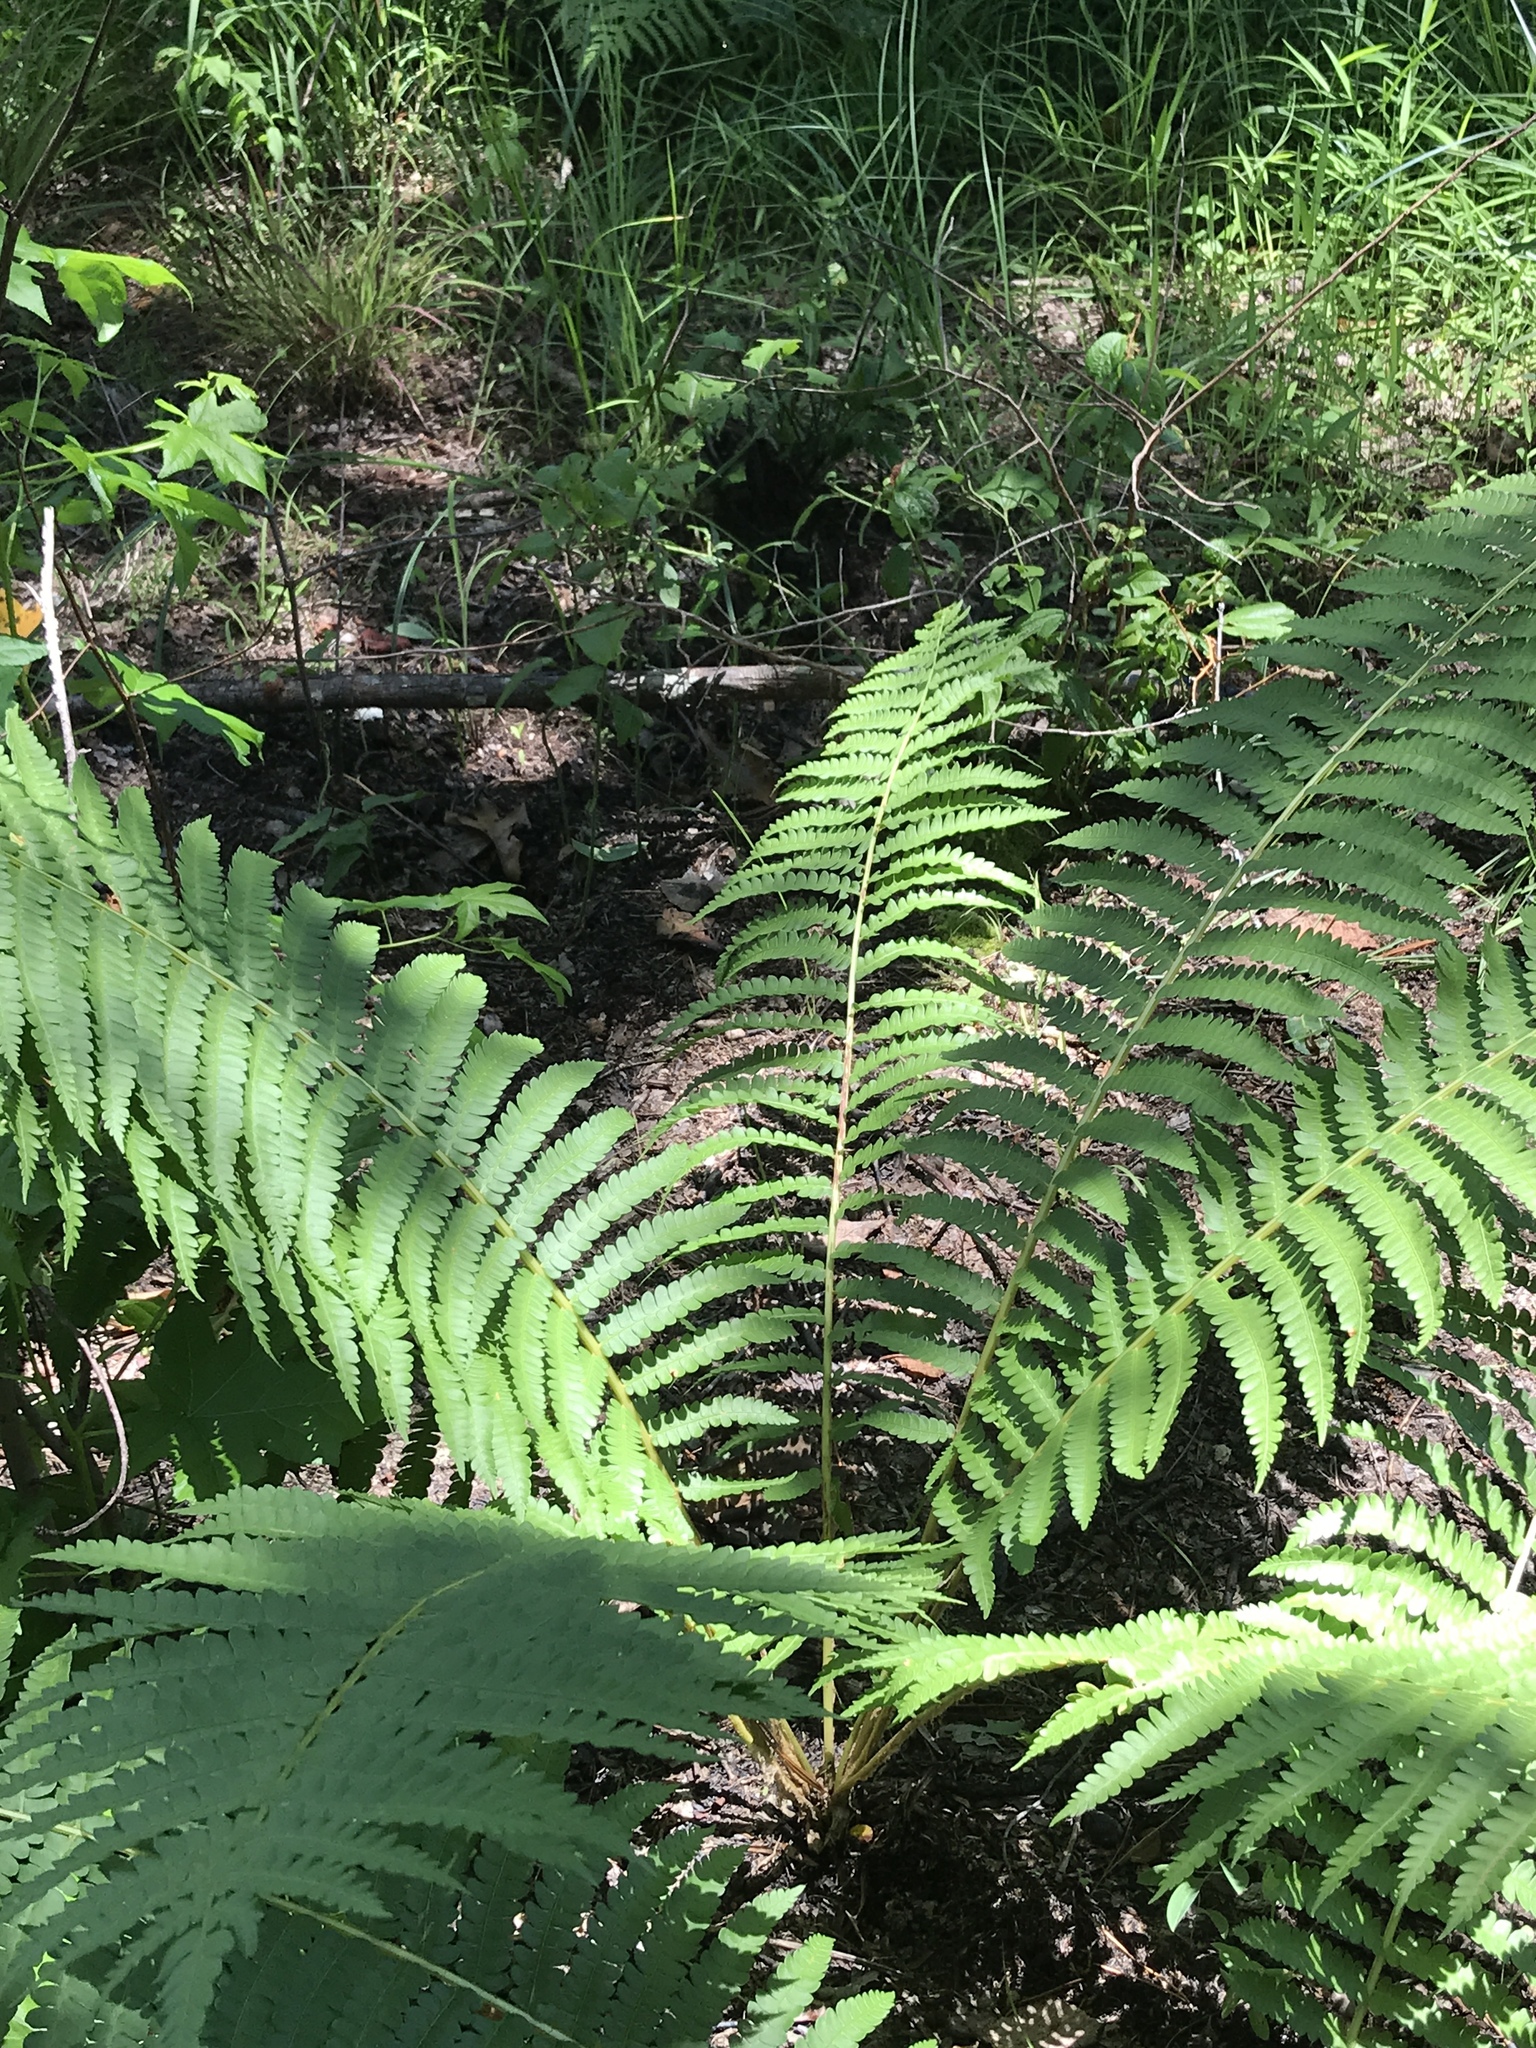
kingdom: Plantae
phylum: Tracheophyta
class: Polypodiopsida
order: Osmundales
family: Osmundaceae
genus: Osmundastrum
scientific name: Osmundastrum cinnamomeum
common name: Cinnamon fern
